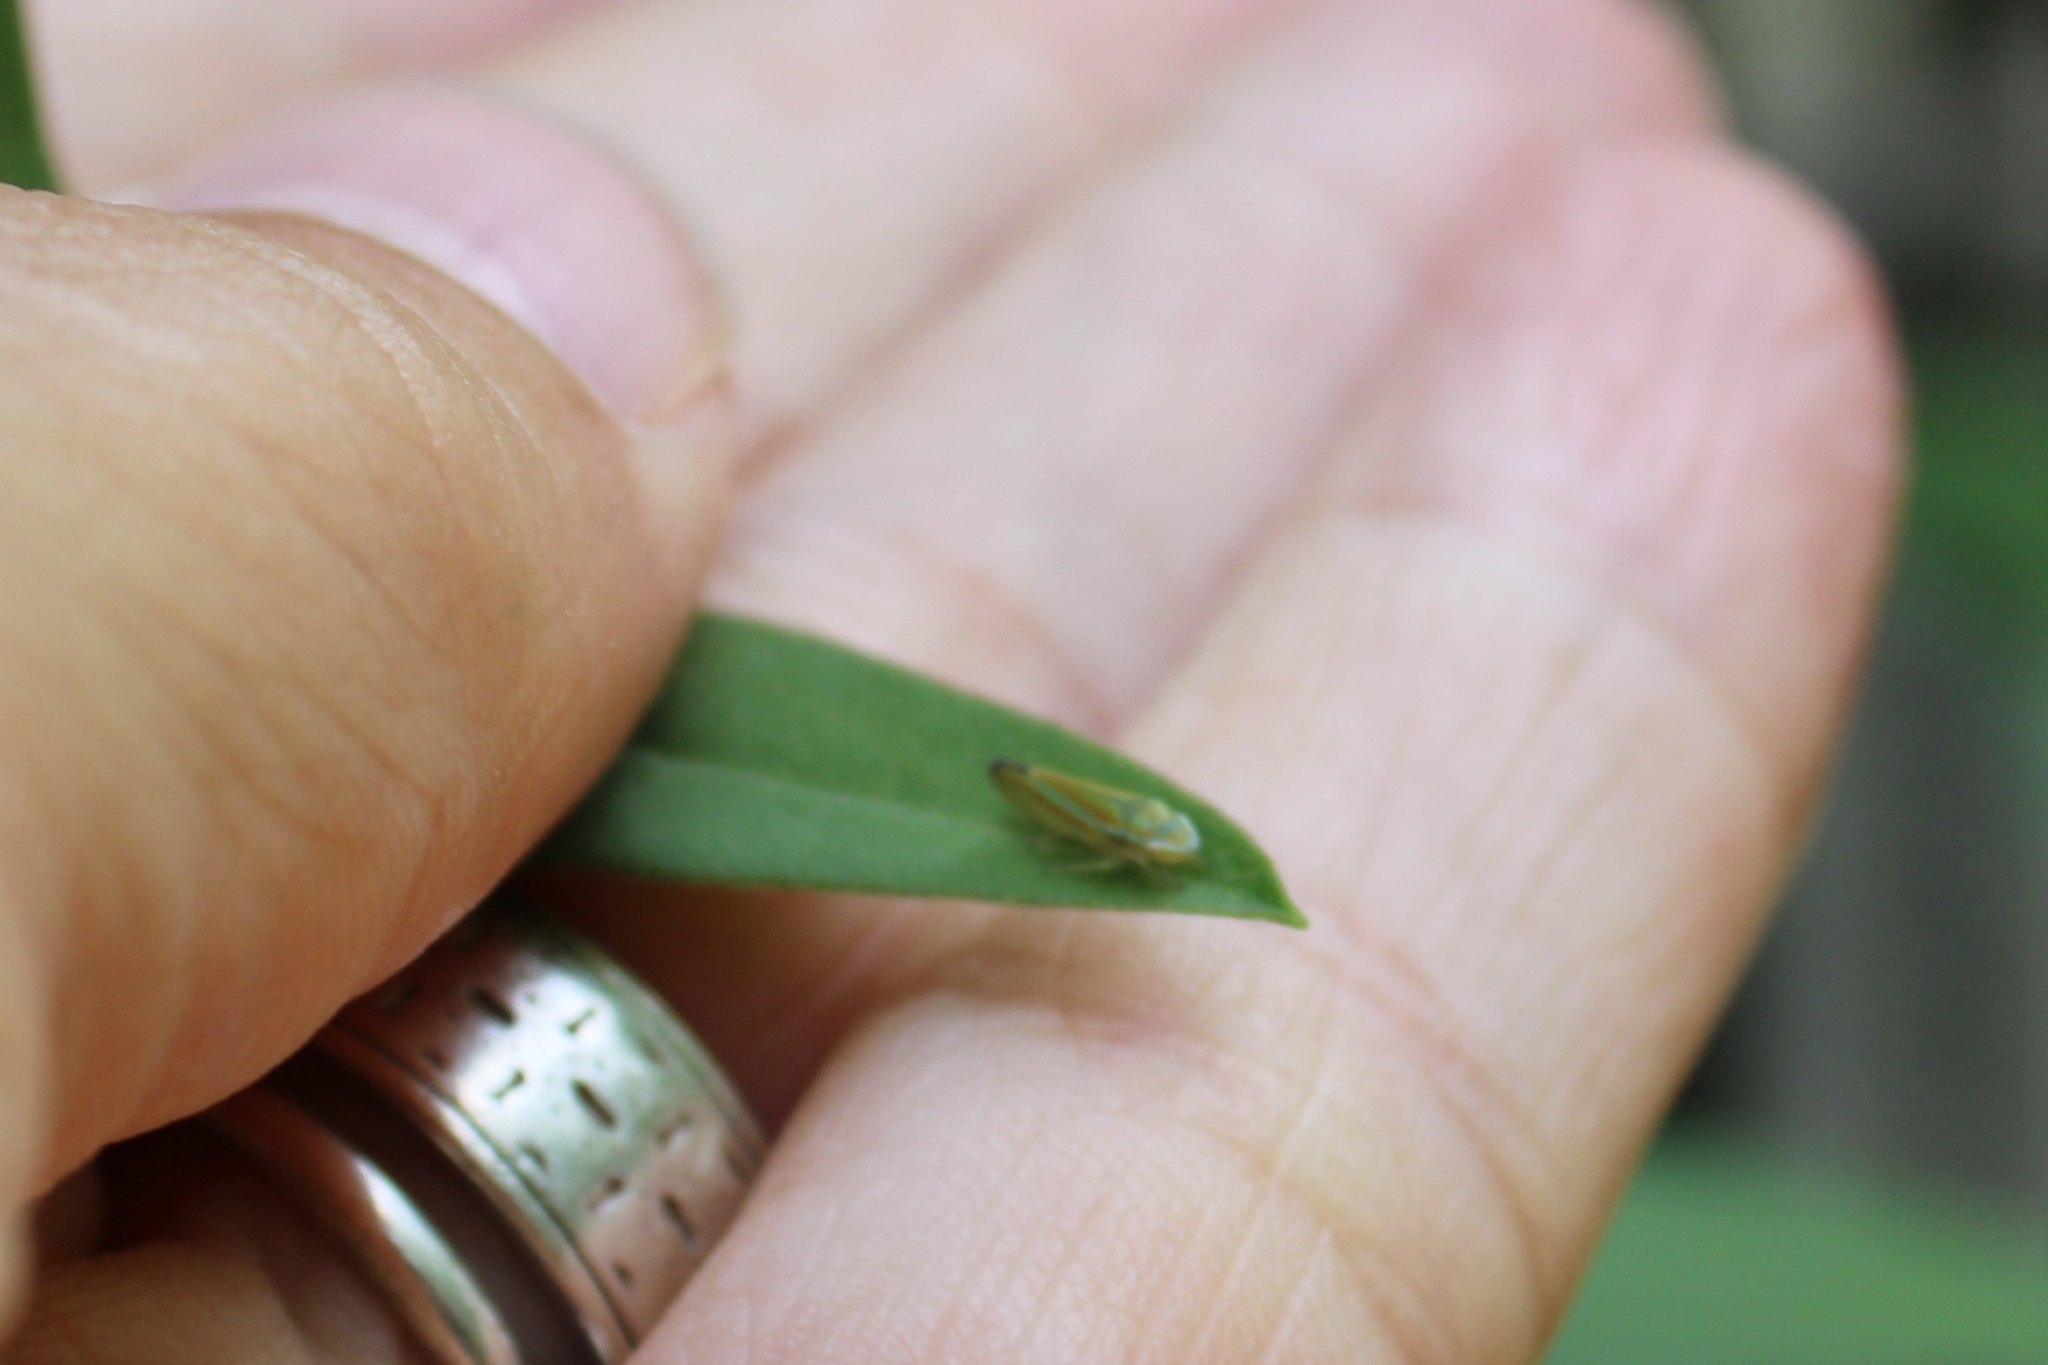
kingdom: Animalia
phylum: Arthropoda
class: Insecta
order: Hemiptera
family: Cicadellidae
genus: Graphocephala
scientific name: Graphocephala versuta
